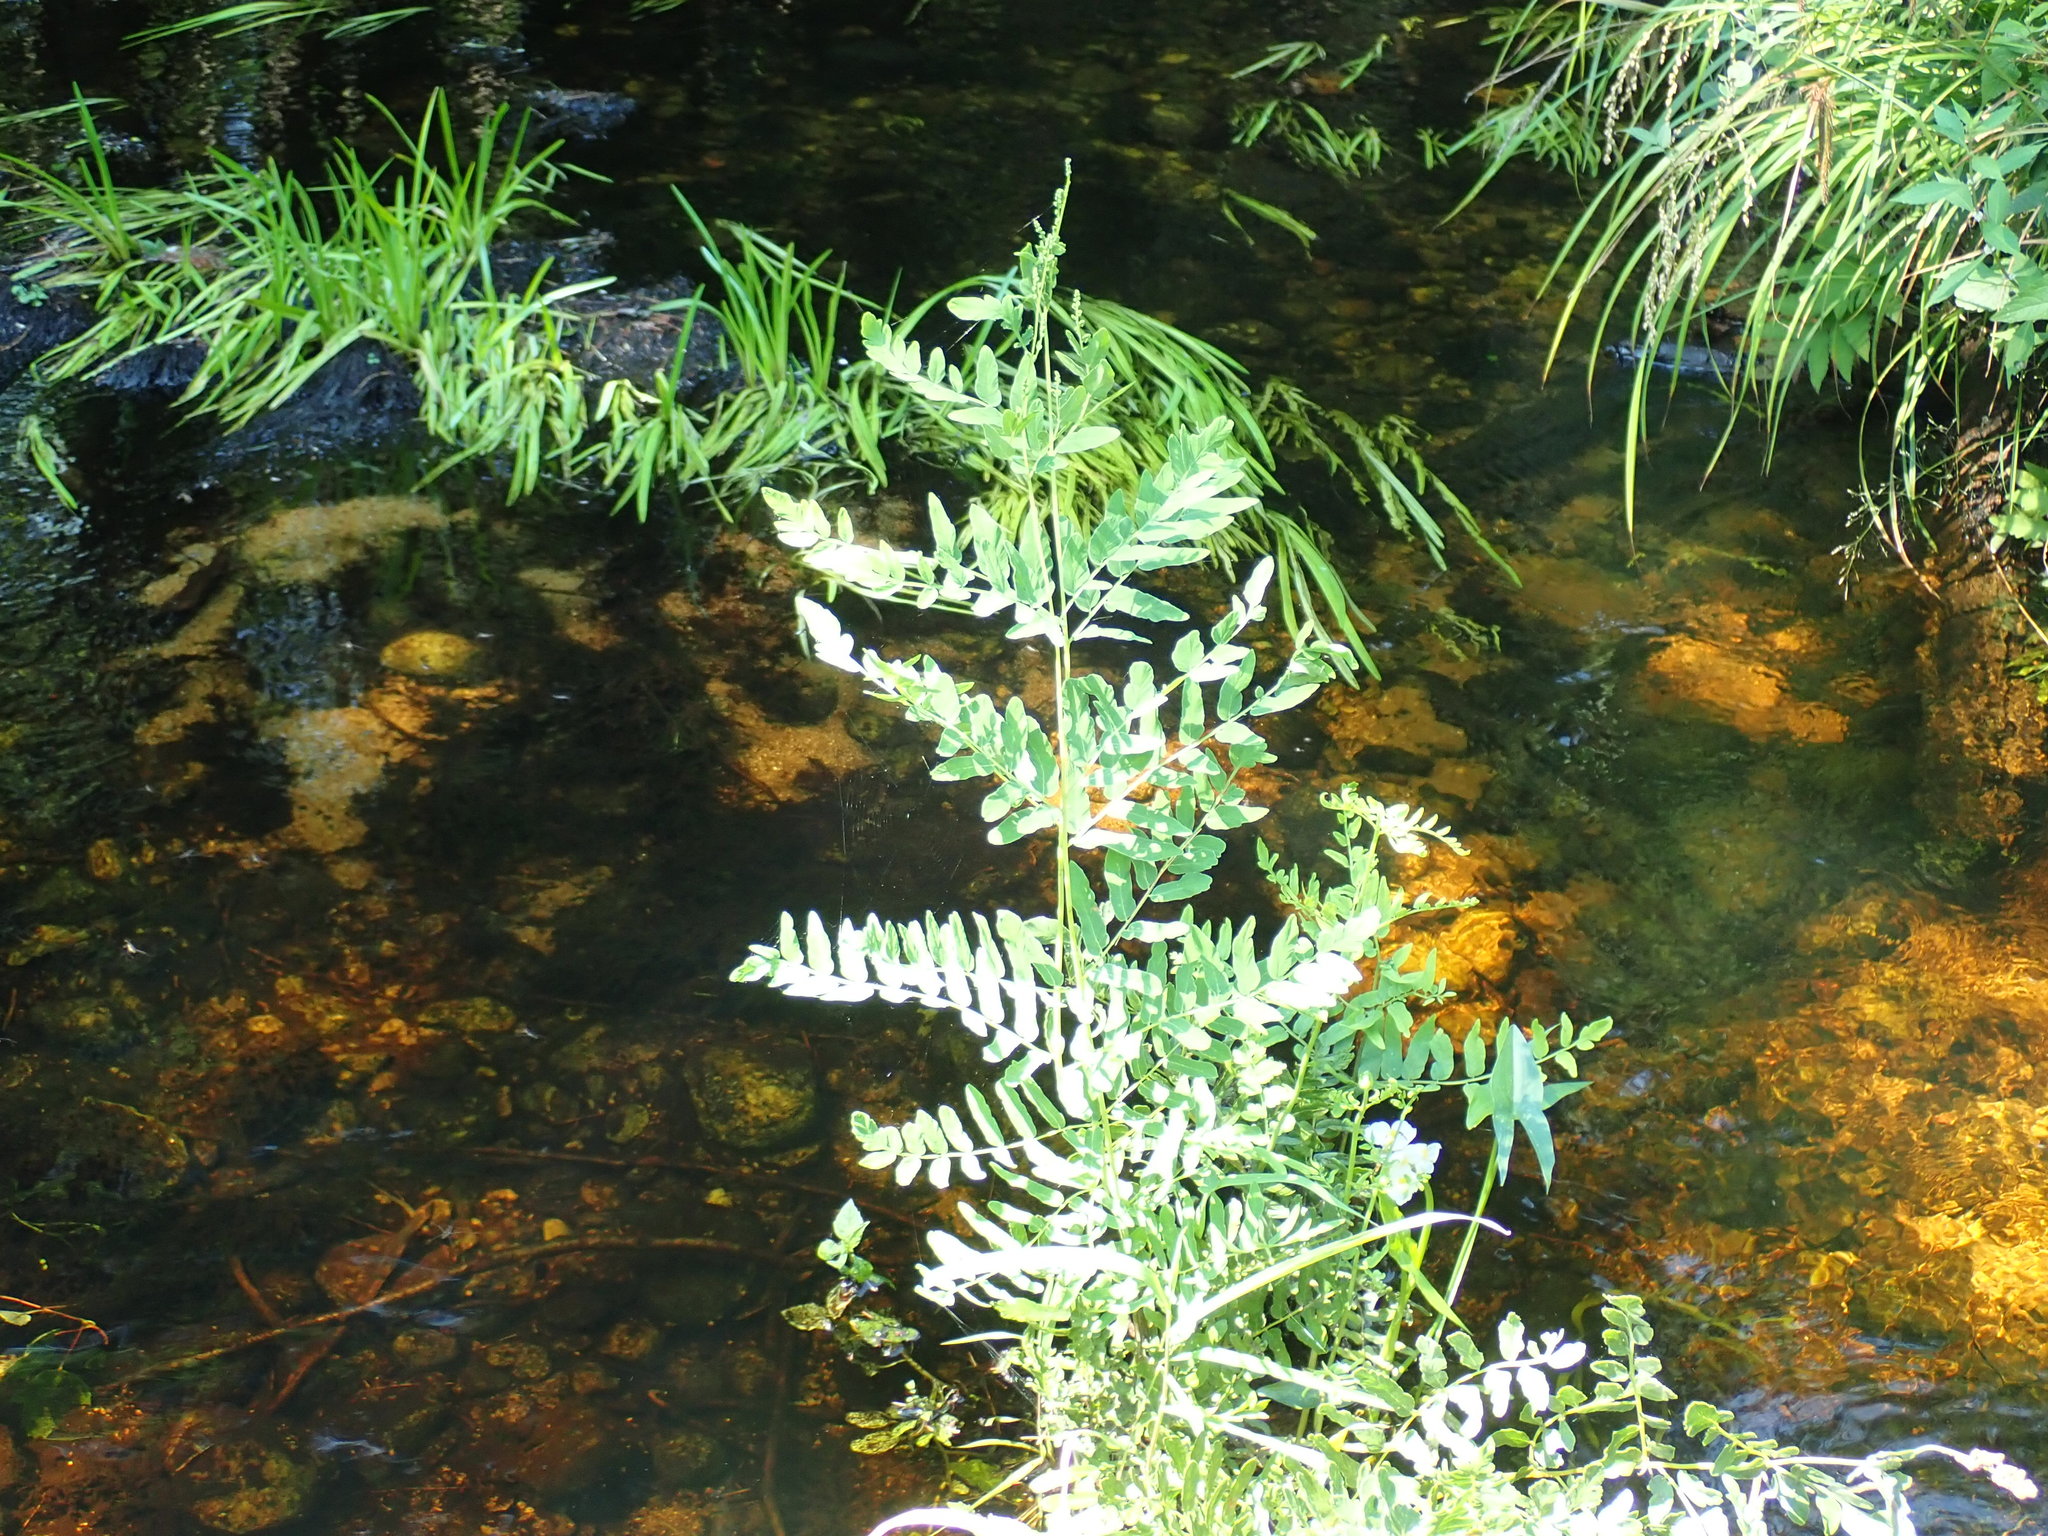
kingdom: Plantae
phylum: Tracheophyta
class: Polypodiopsida
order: Osmundales
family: Osmundaceae
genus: Osmunda
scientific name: Osmunda spectabilis
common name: American royal fern
